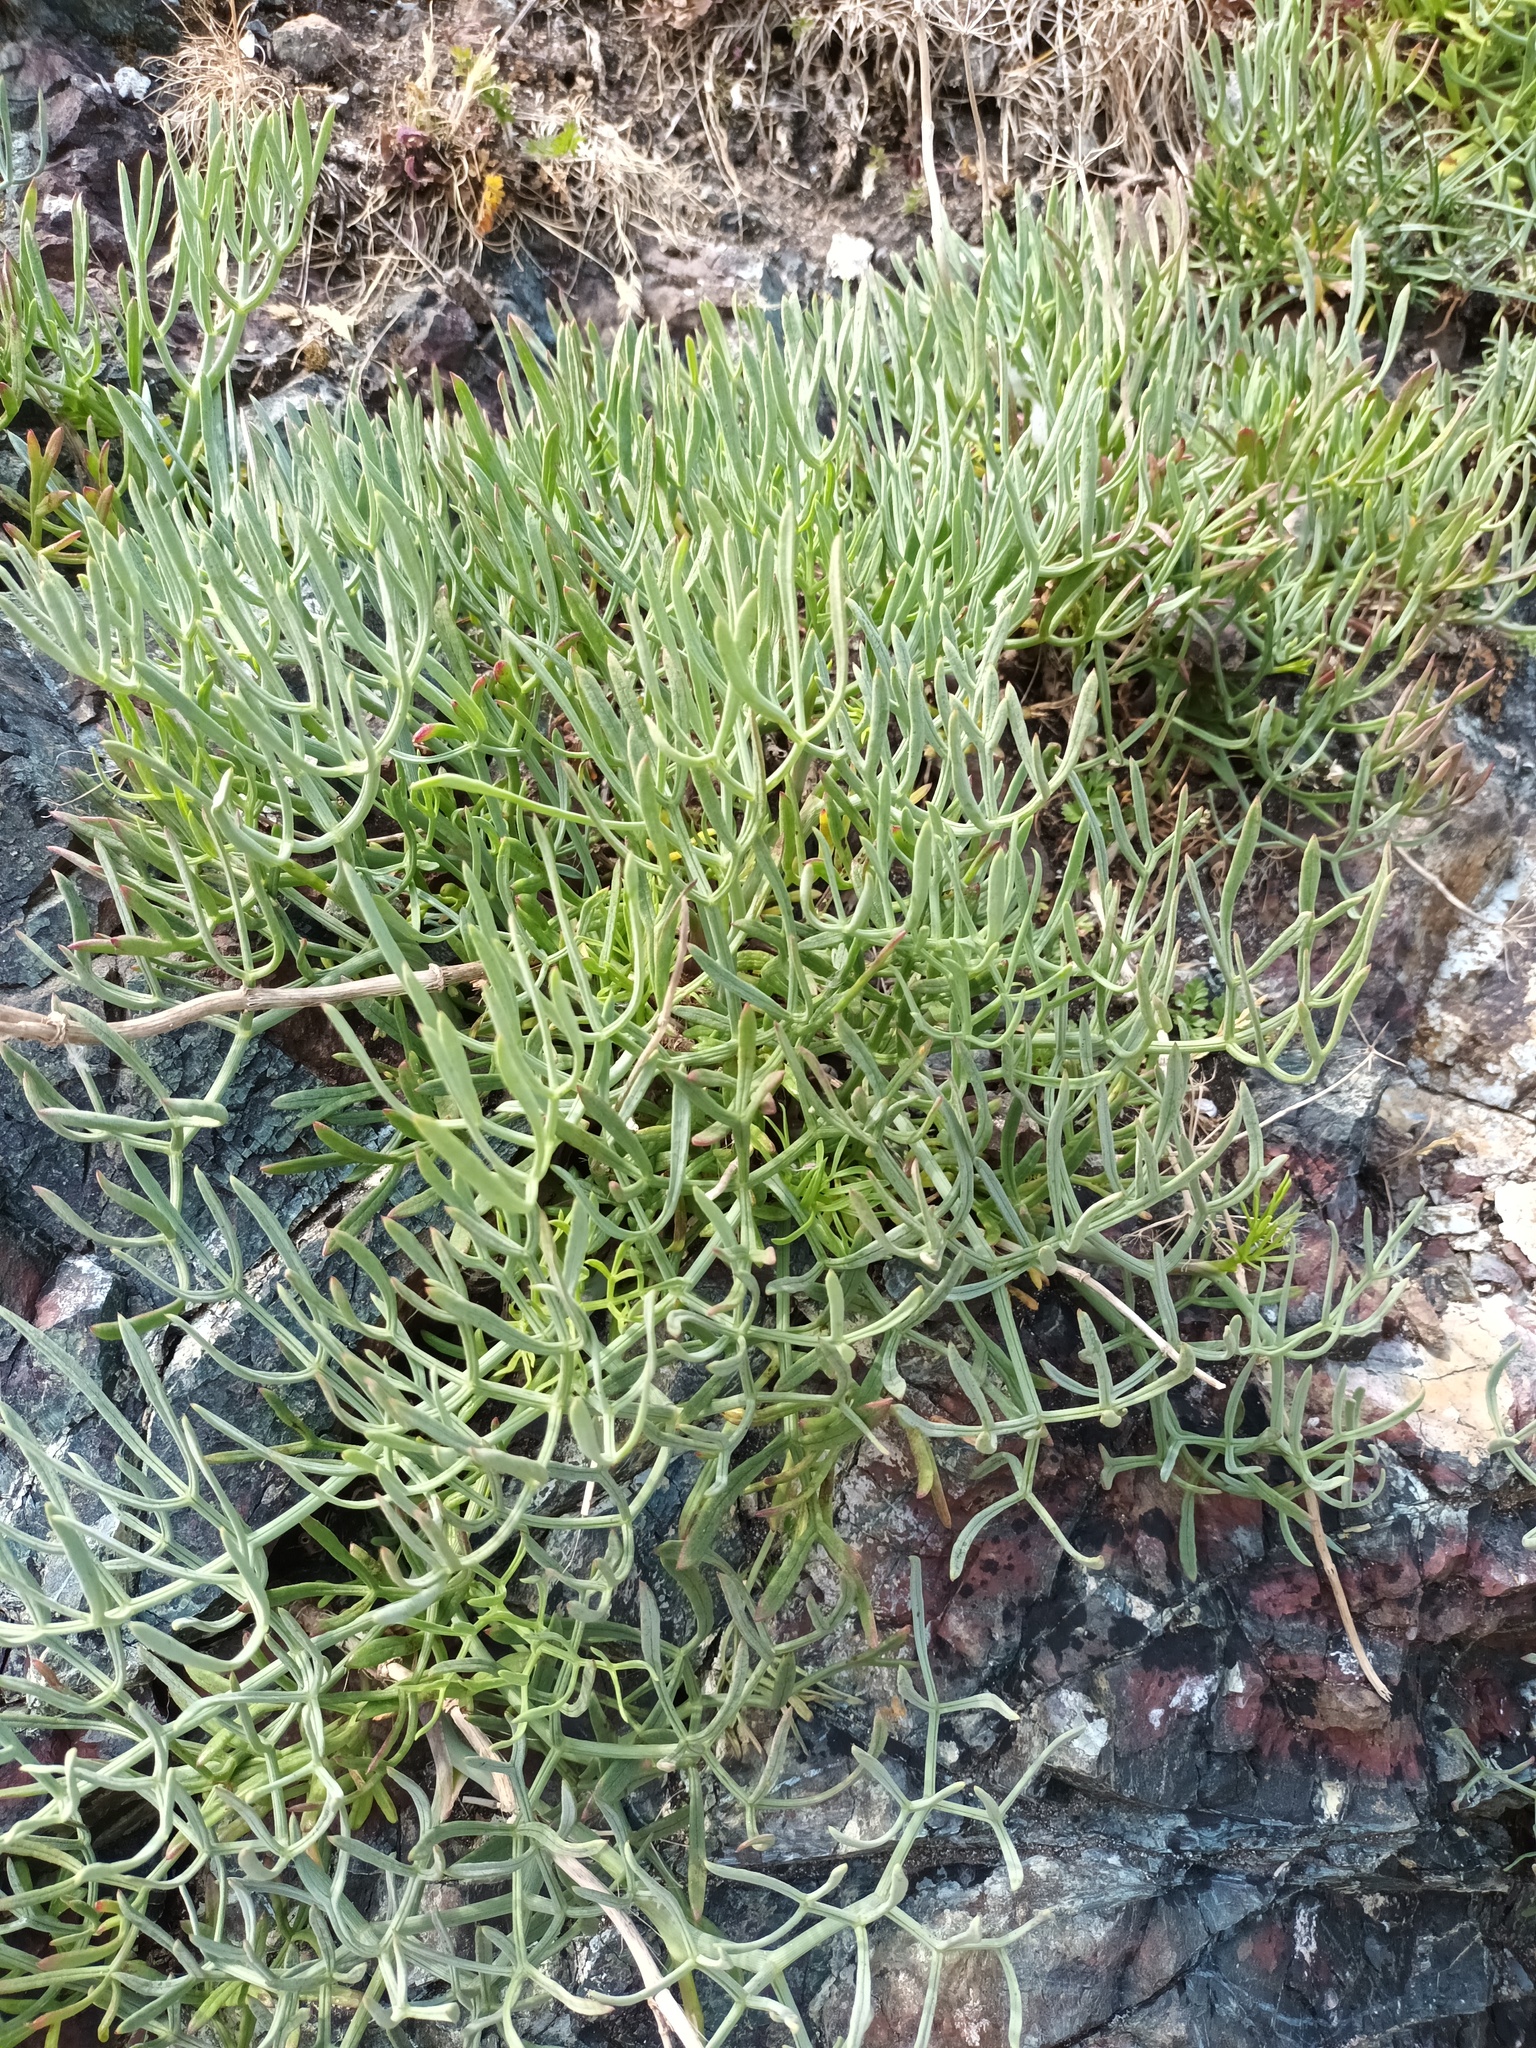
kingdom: Plantae
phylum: Tracheophyta
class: Magnoliopsida
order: Apiales
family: Apiaceae
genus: Crithmum
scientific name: Crithmum maritimum
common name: Rock samphire
